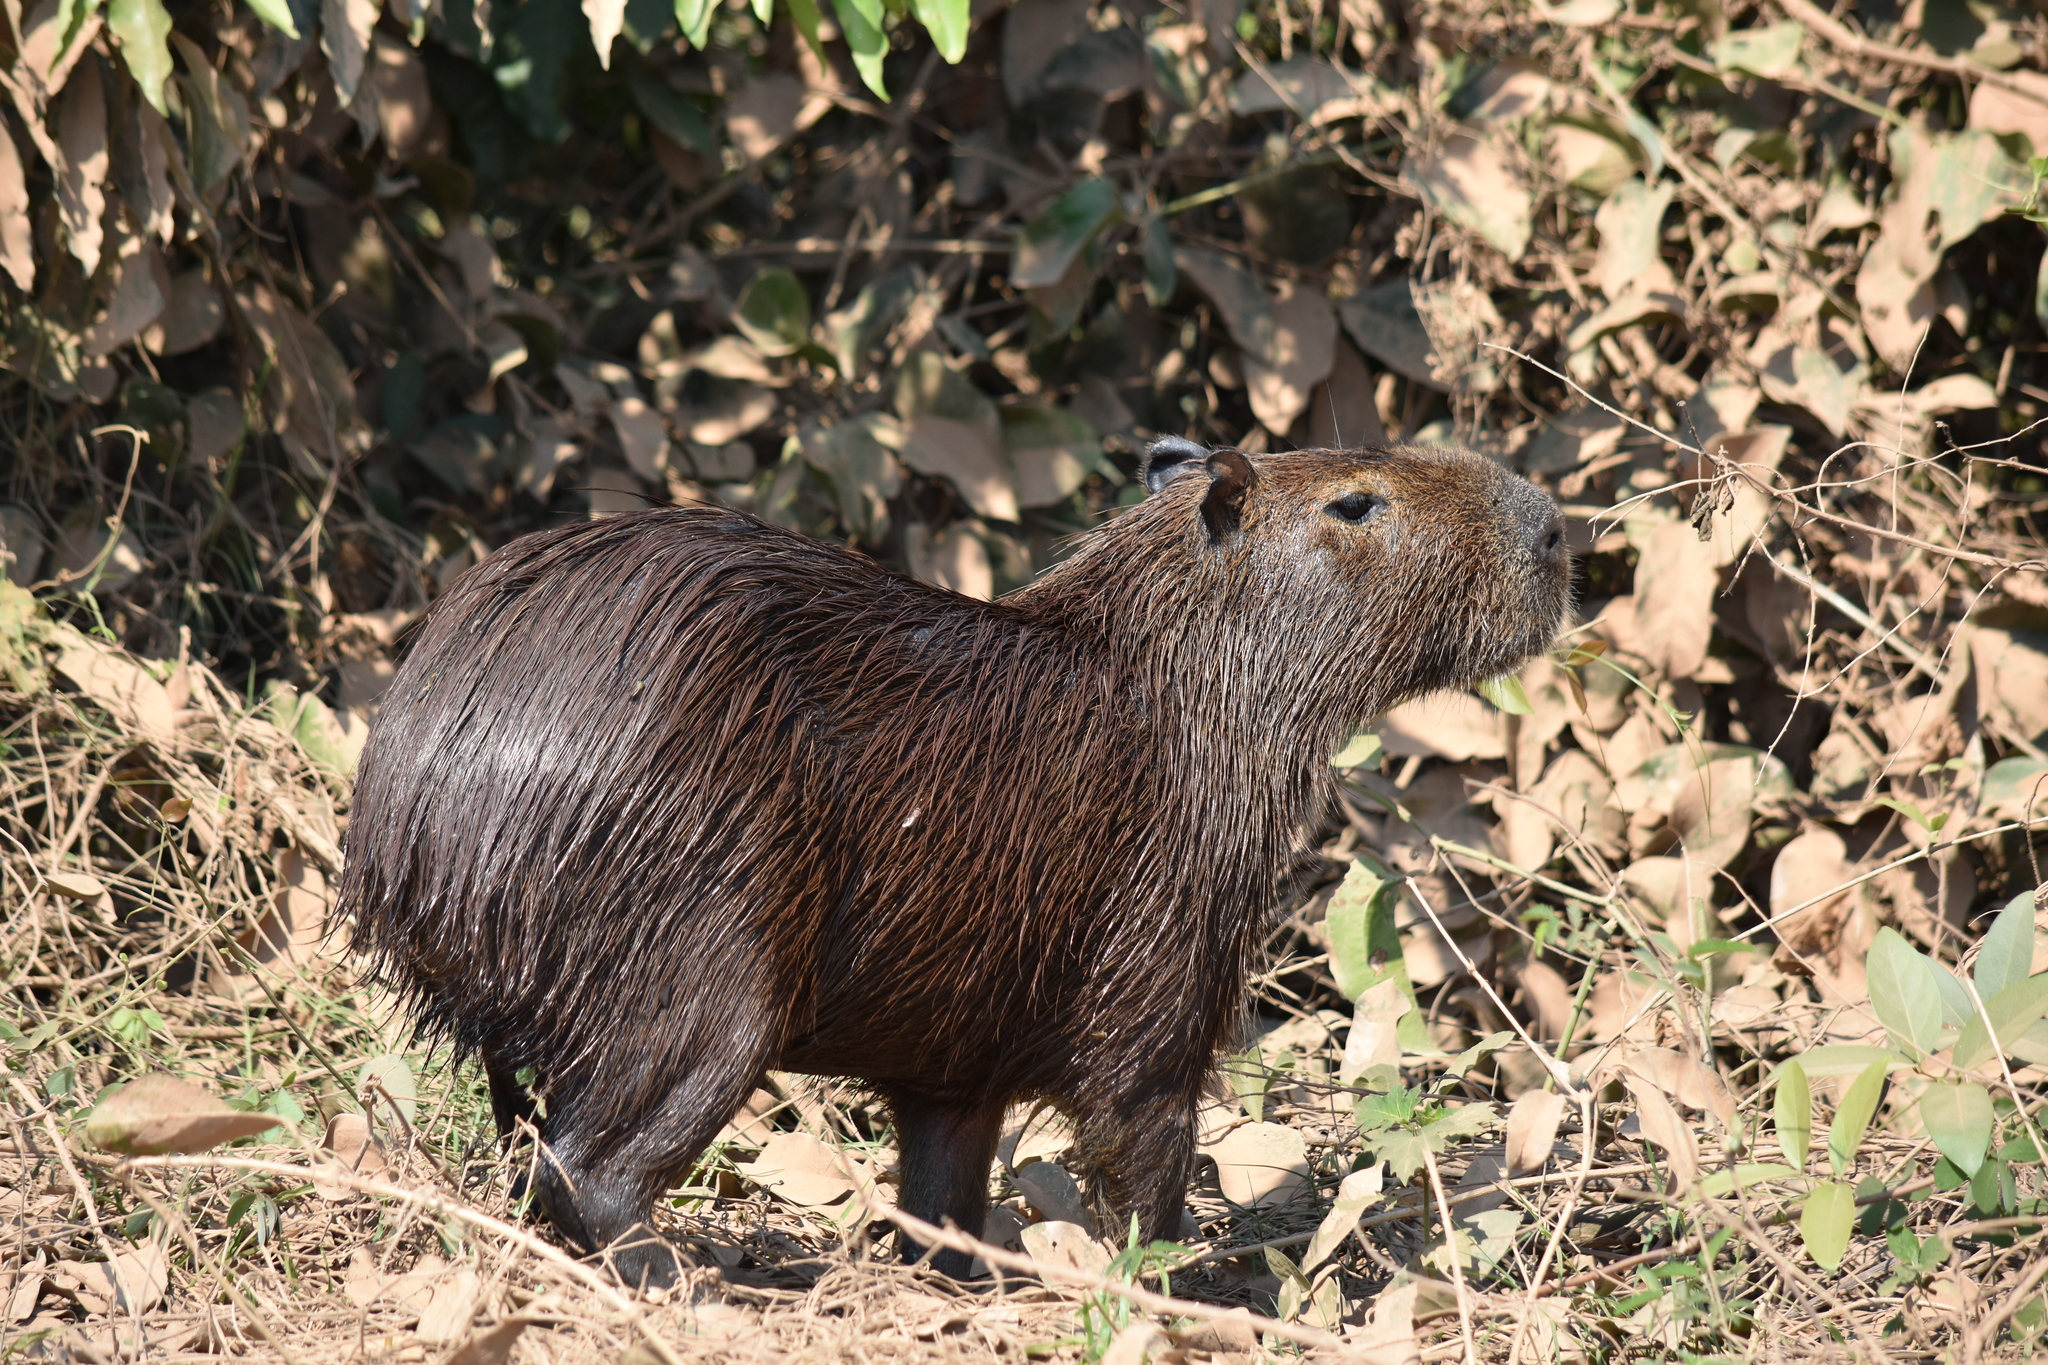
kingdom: Animalia
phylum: Chordata
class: Mammalia
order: Rodentia
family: Caviidae
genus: Hydrochoerus
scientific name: Hydrochoerus hydrochaeris
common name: Capybara
